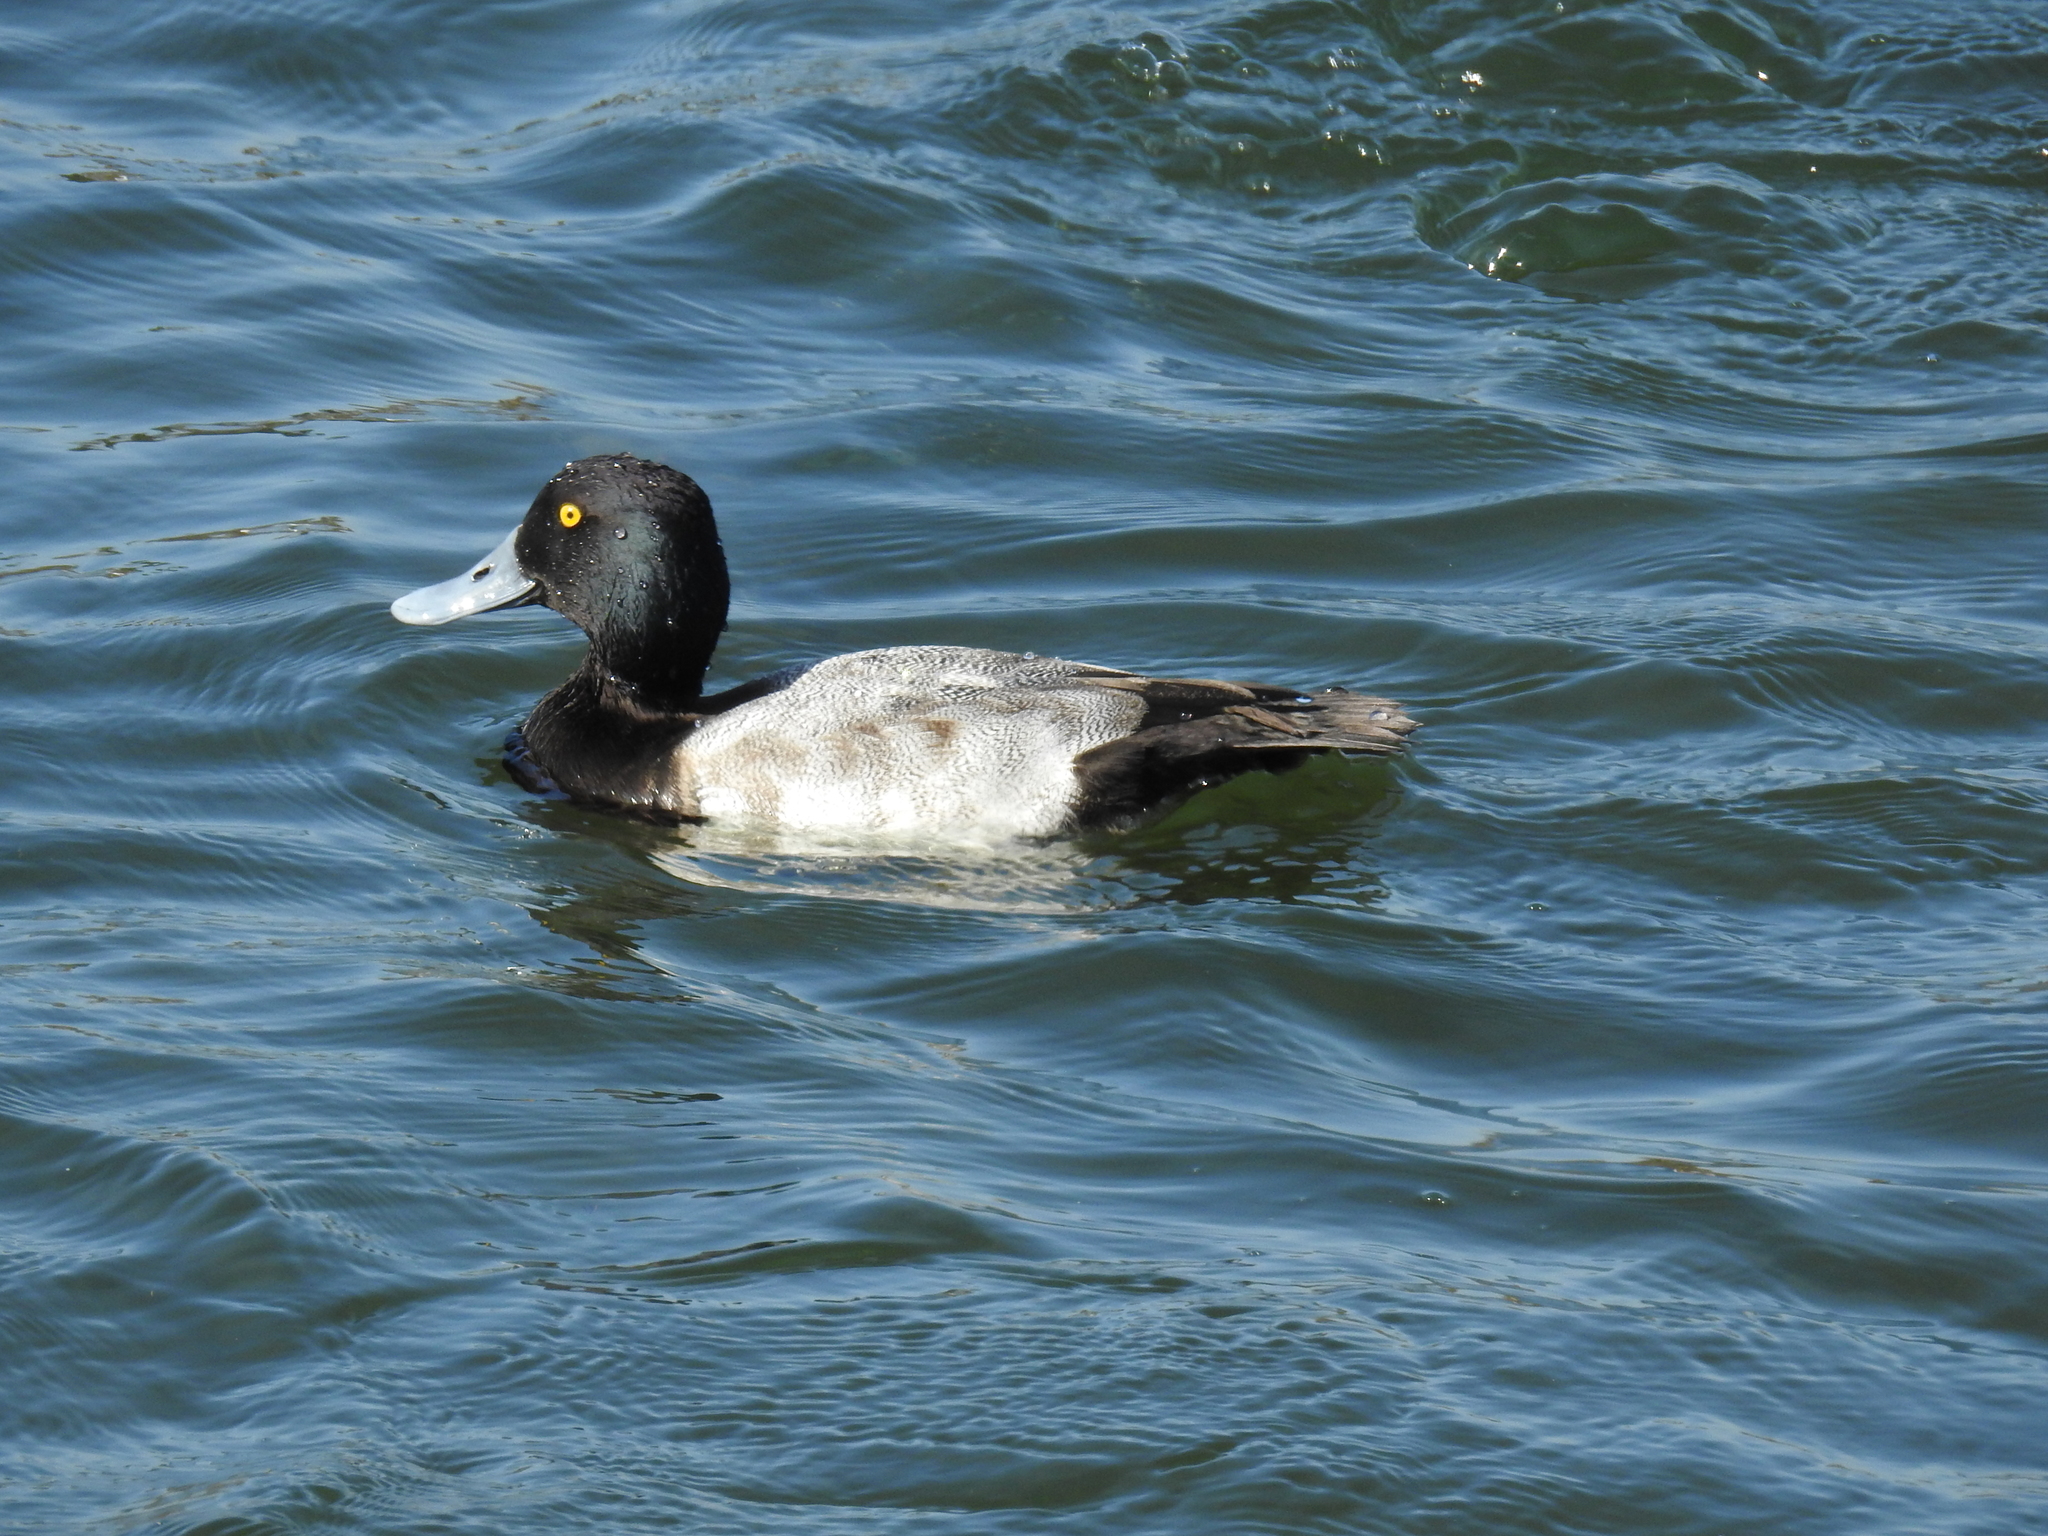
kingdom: Animalia
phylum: Chordata
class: Aves
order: Anseriformes
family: Anatidae
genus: Aythya
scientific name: Aythya affinis
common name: Lesser scaup
